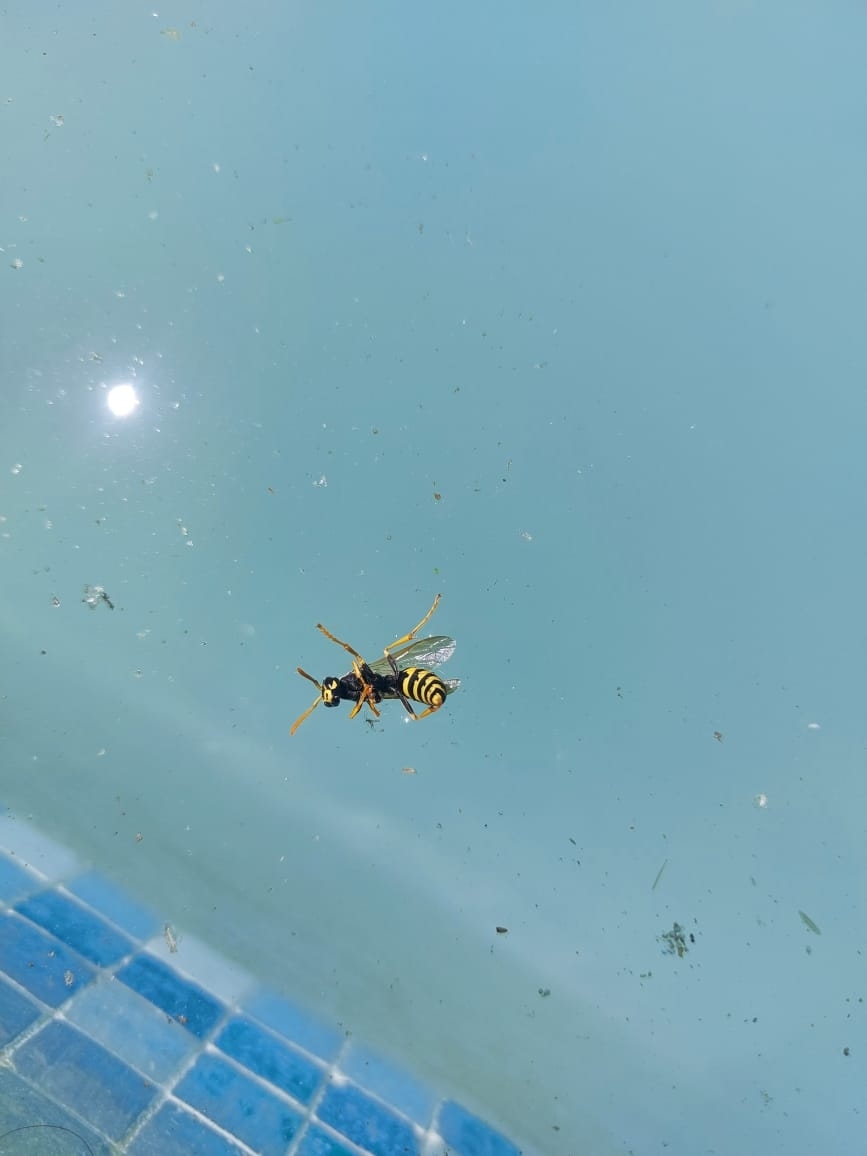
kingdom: Animalia
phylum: Arthropoda
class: Insecta
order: Hymenoptera
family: Eumenidae
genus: Polistes
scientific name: Polistes dominula
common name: Paper wasp
